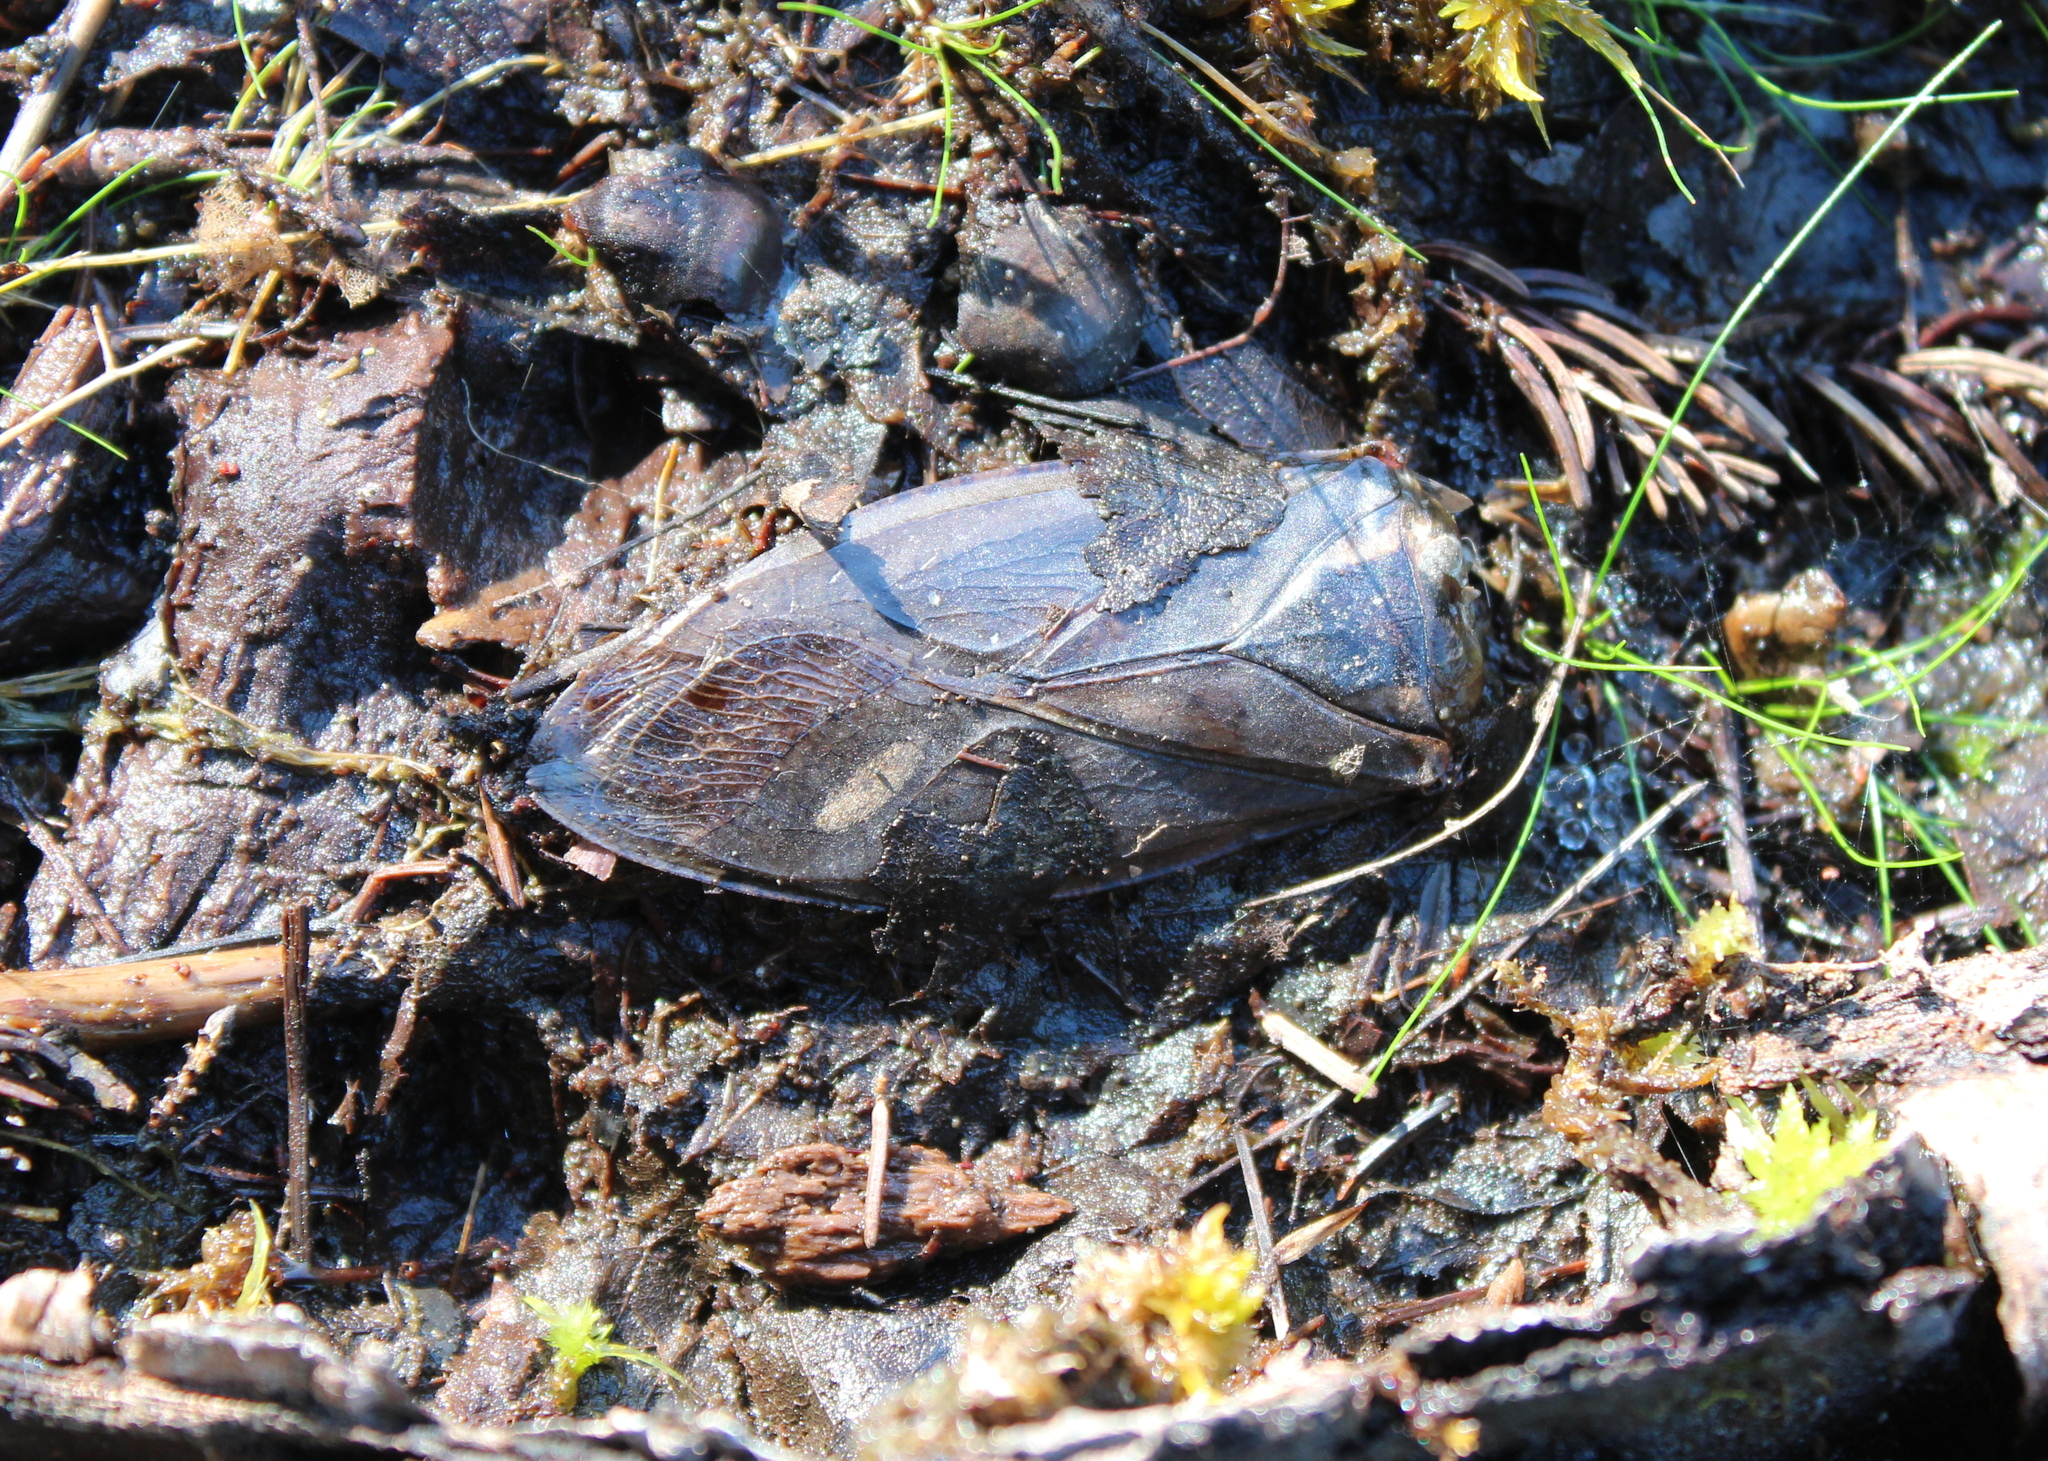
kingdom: Animalia
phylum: Arthropoda
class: Insecta
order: Hemiptera
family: Belostomatidae
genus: Lethocerus
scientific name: Lethocerus
